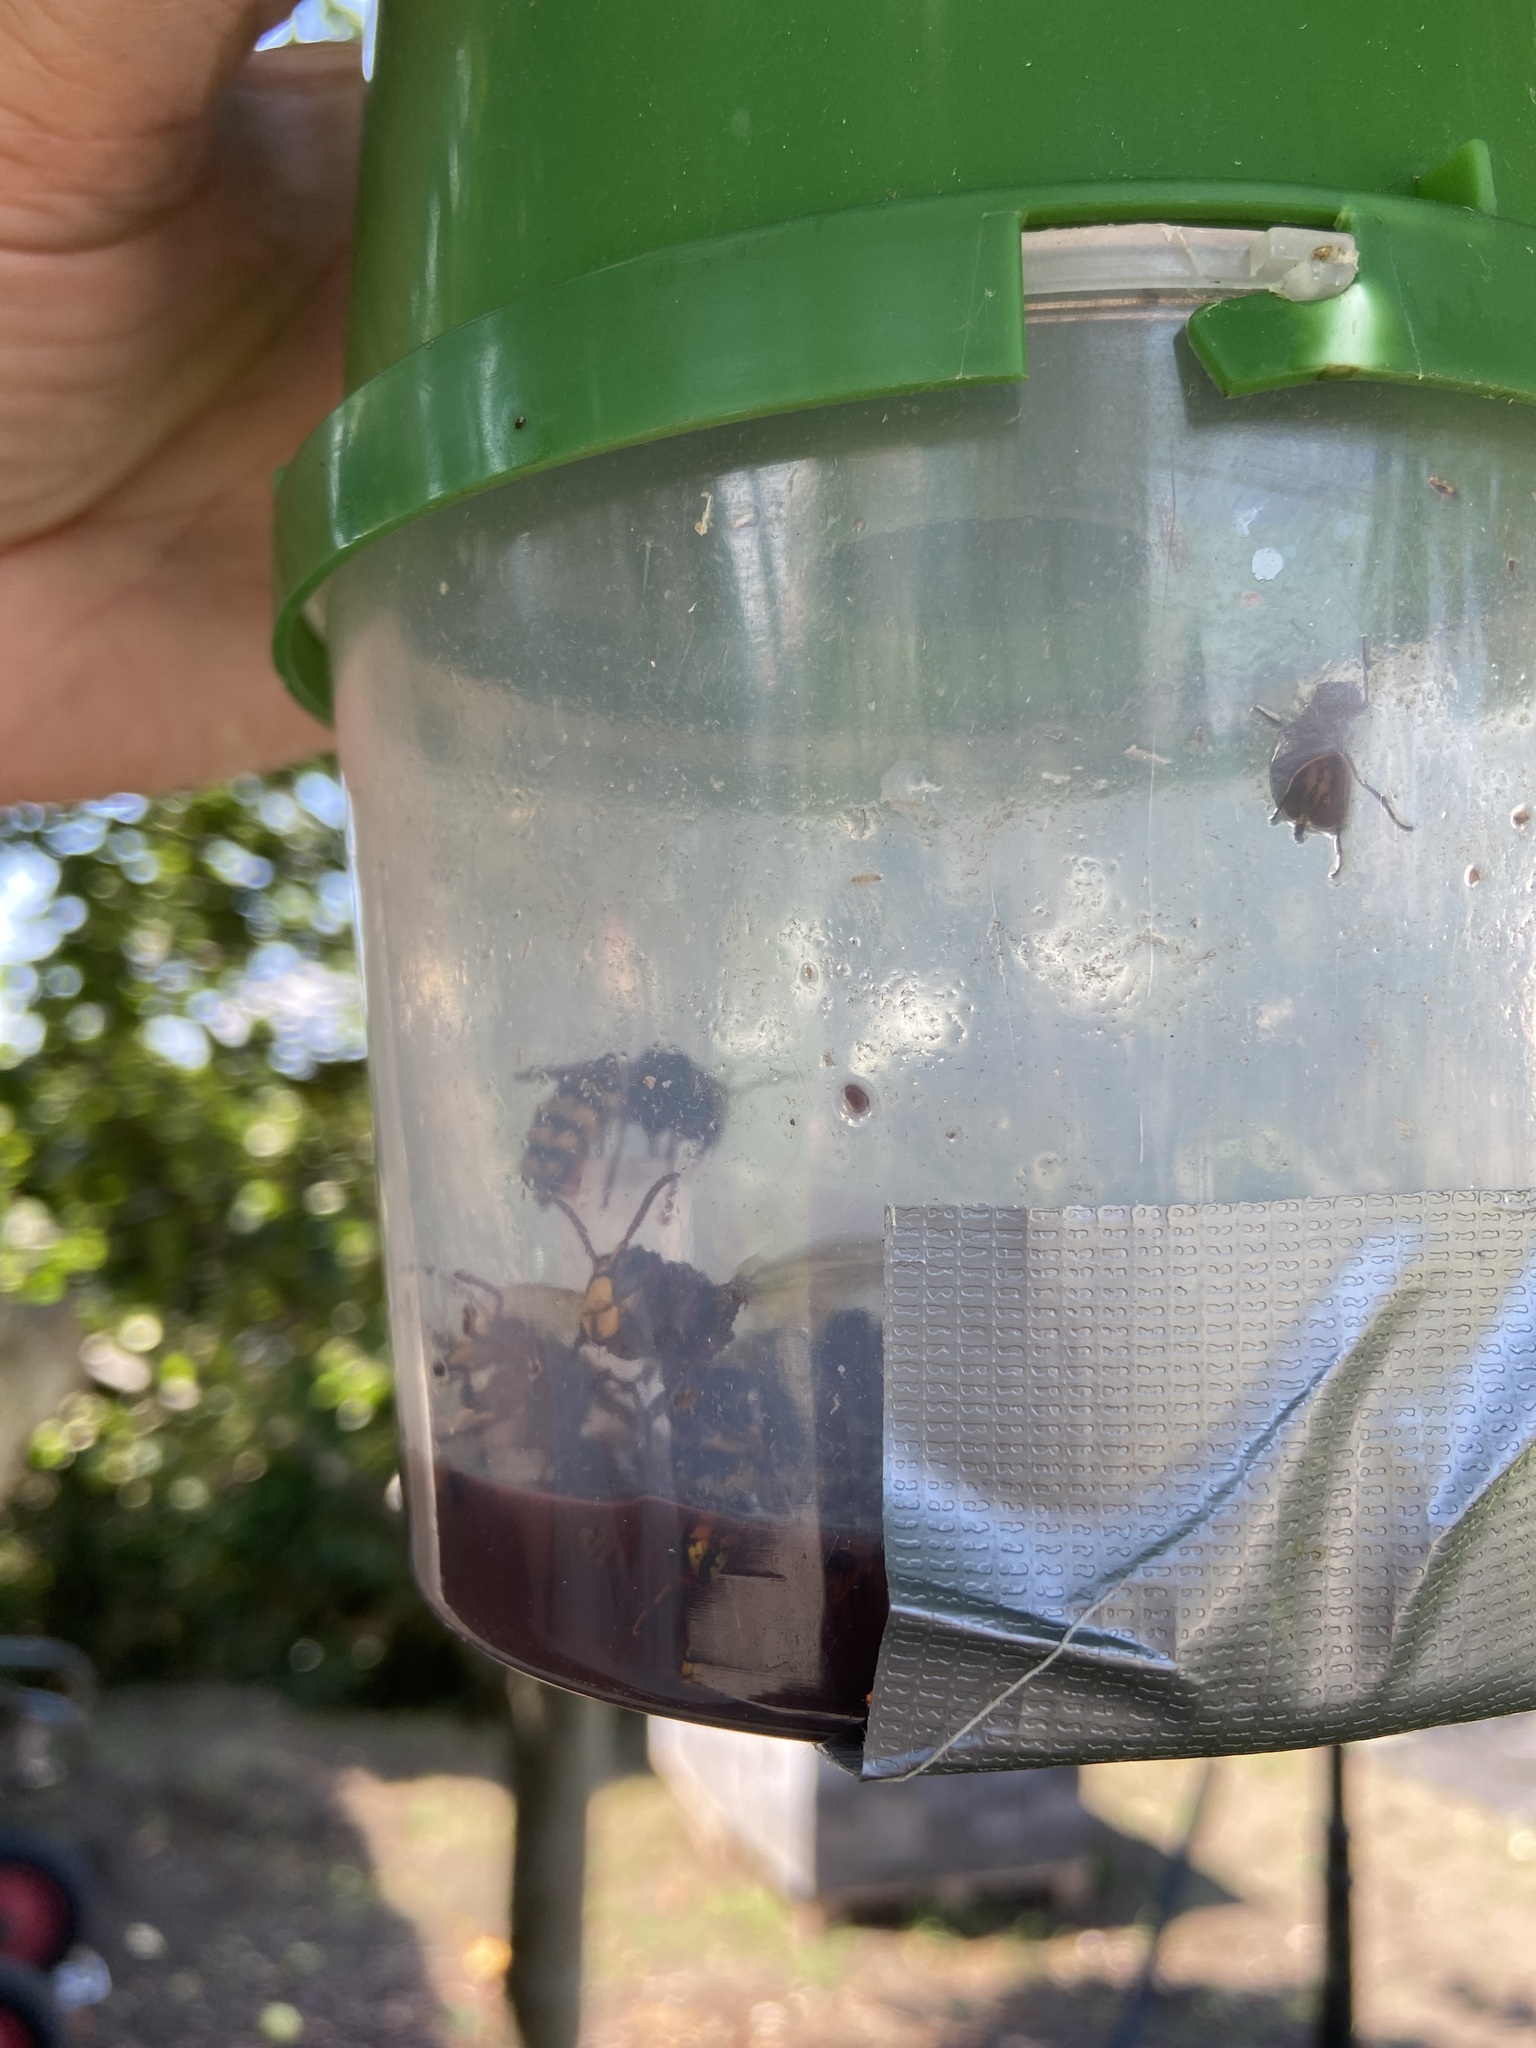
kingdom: Animalia
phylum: Arthropoda
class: Insecta
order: Hymenoptera
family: Vespidae
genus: Vespa
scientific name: Vespa crabro
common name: Hornet
